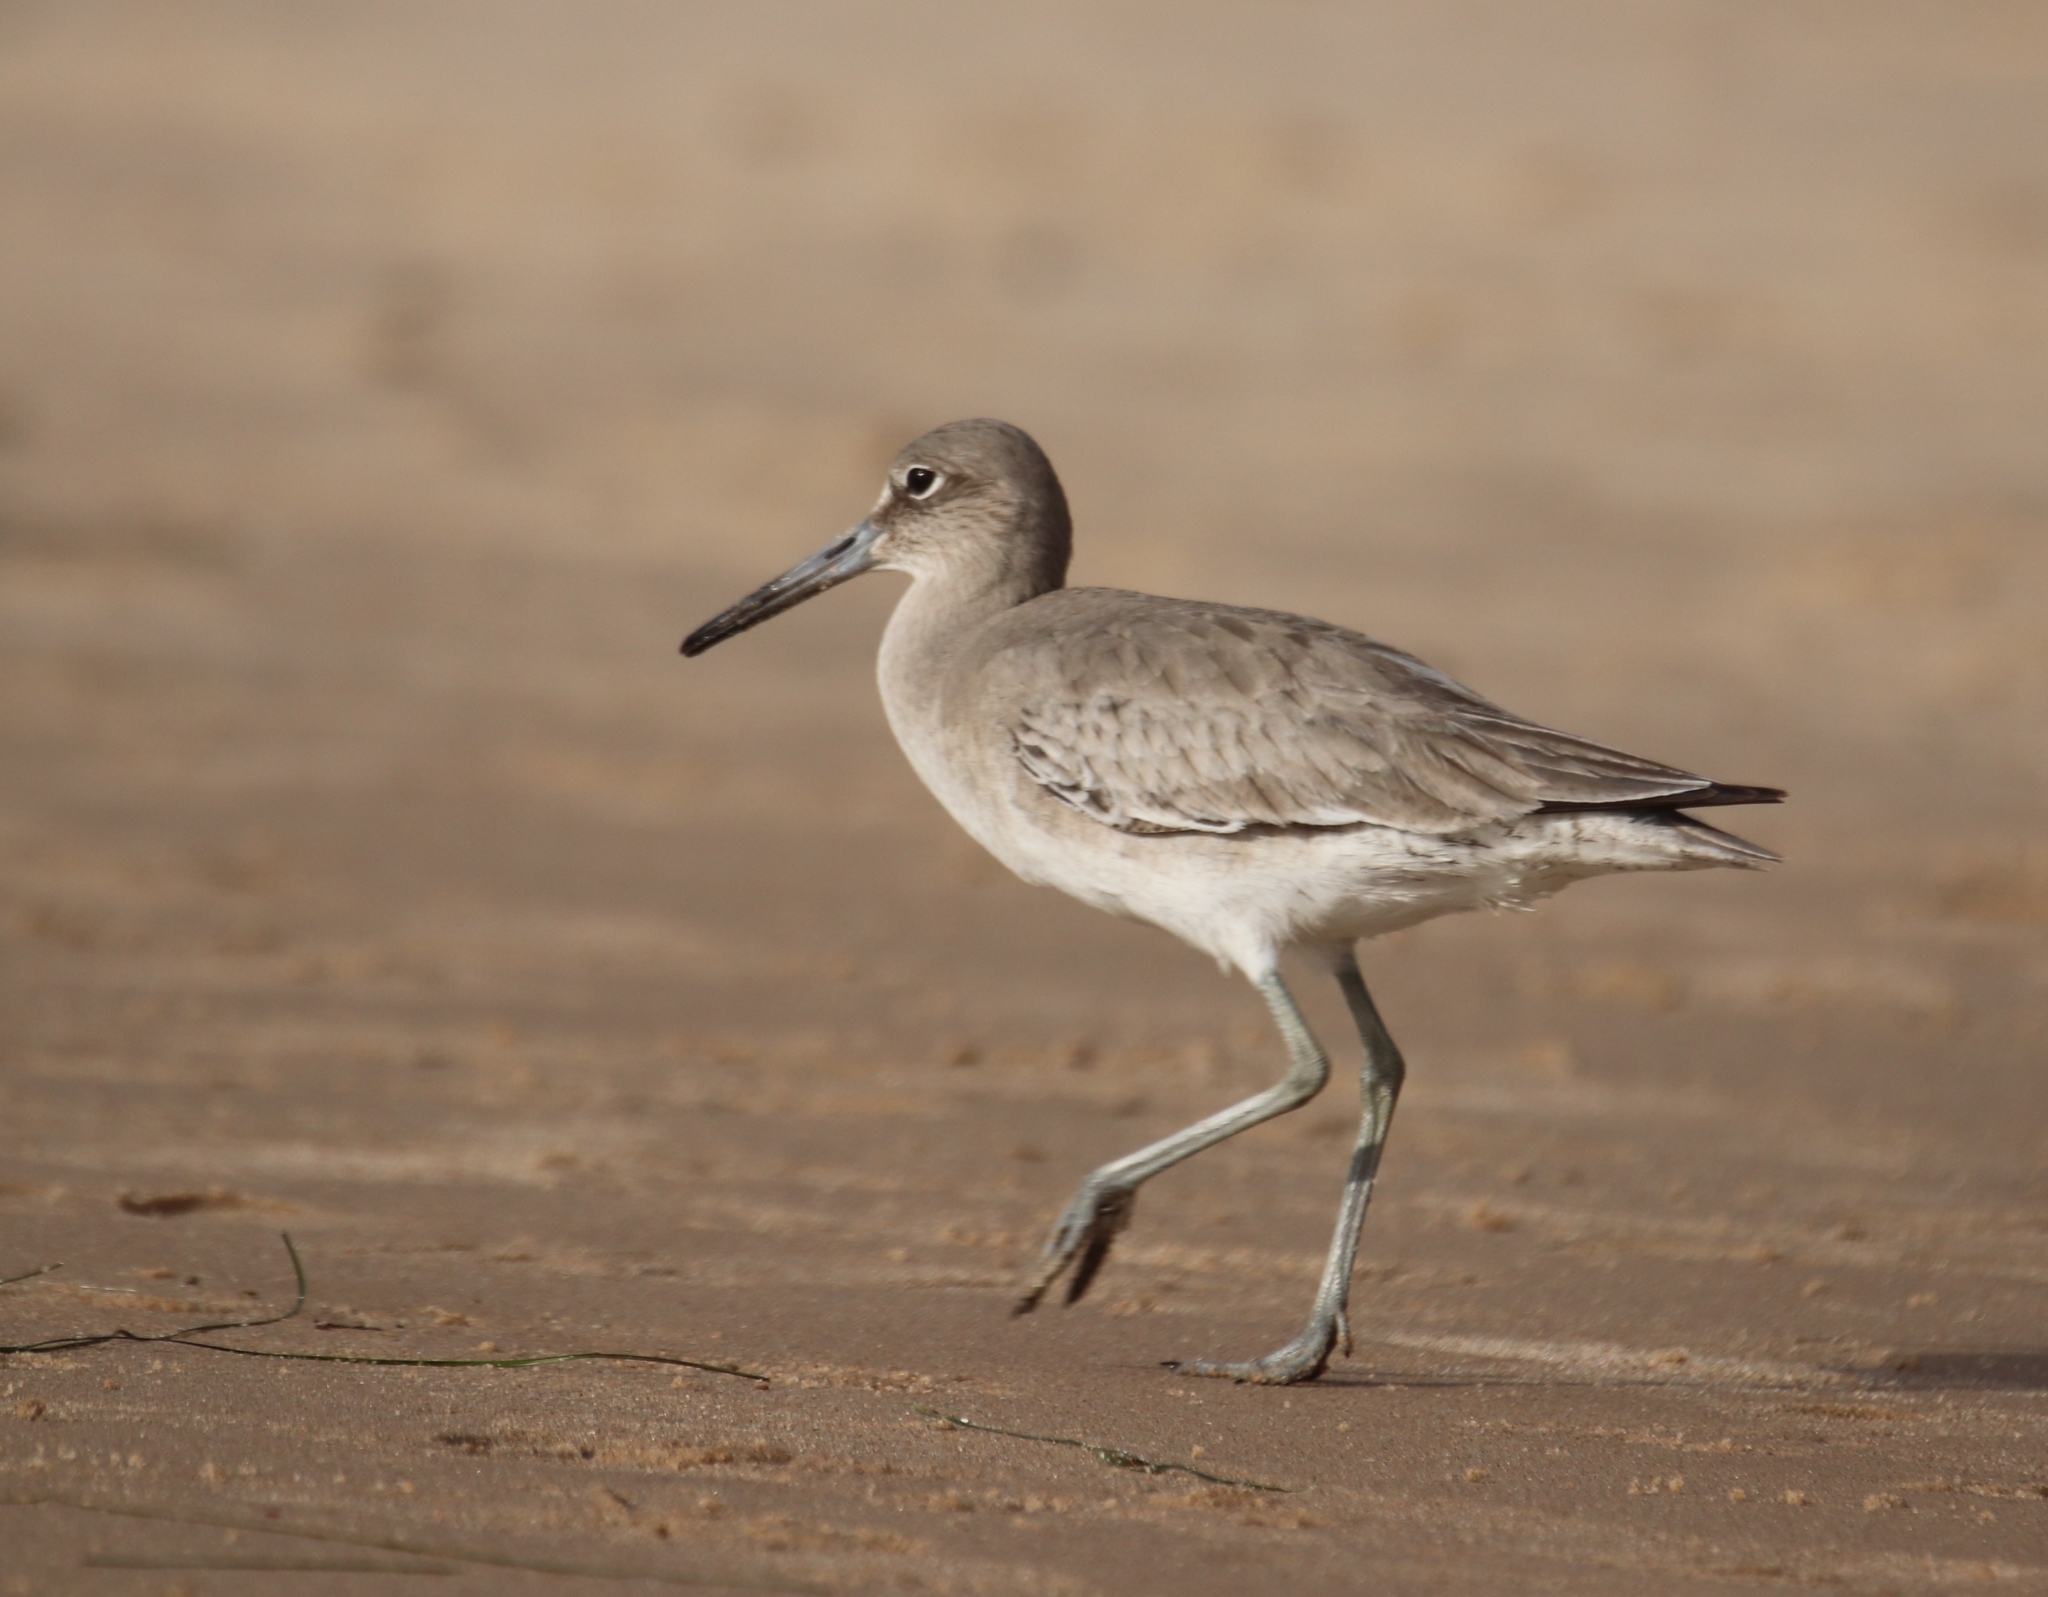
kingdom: Animalia
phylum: Chordata
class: Aves
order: Charadriiformes
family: Scolopacidae
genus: Tringa
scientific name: Tringa semipalmata
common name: Willet
